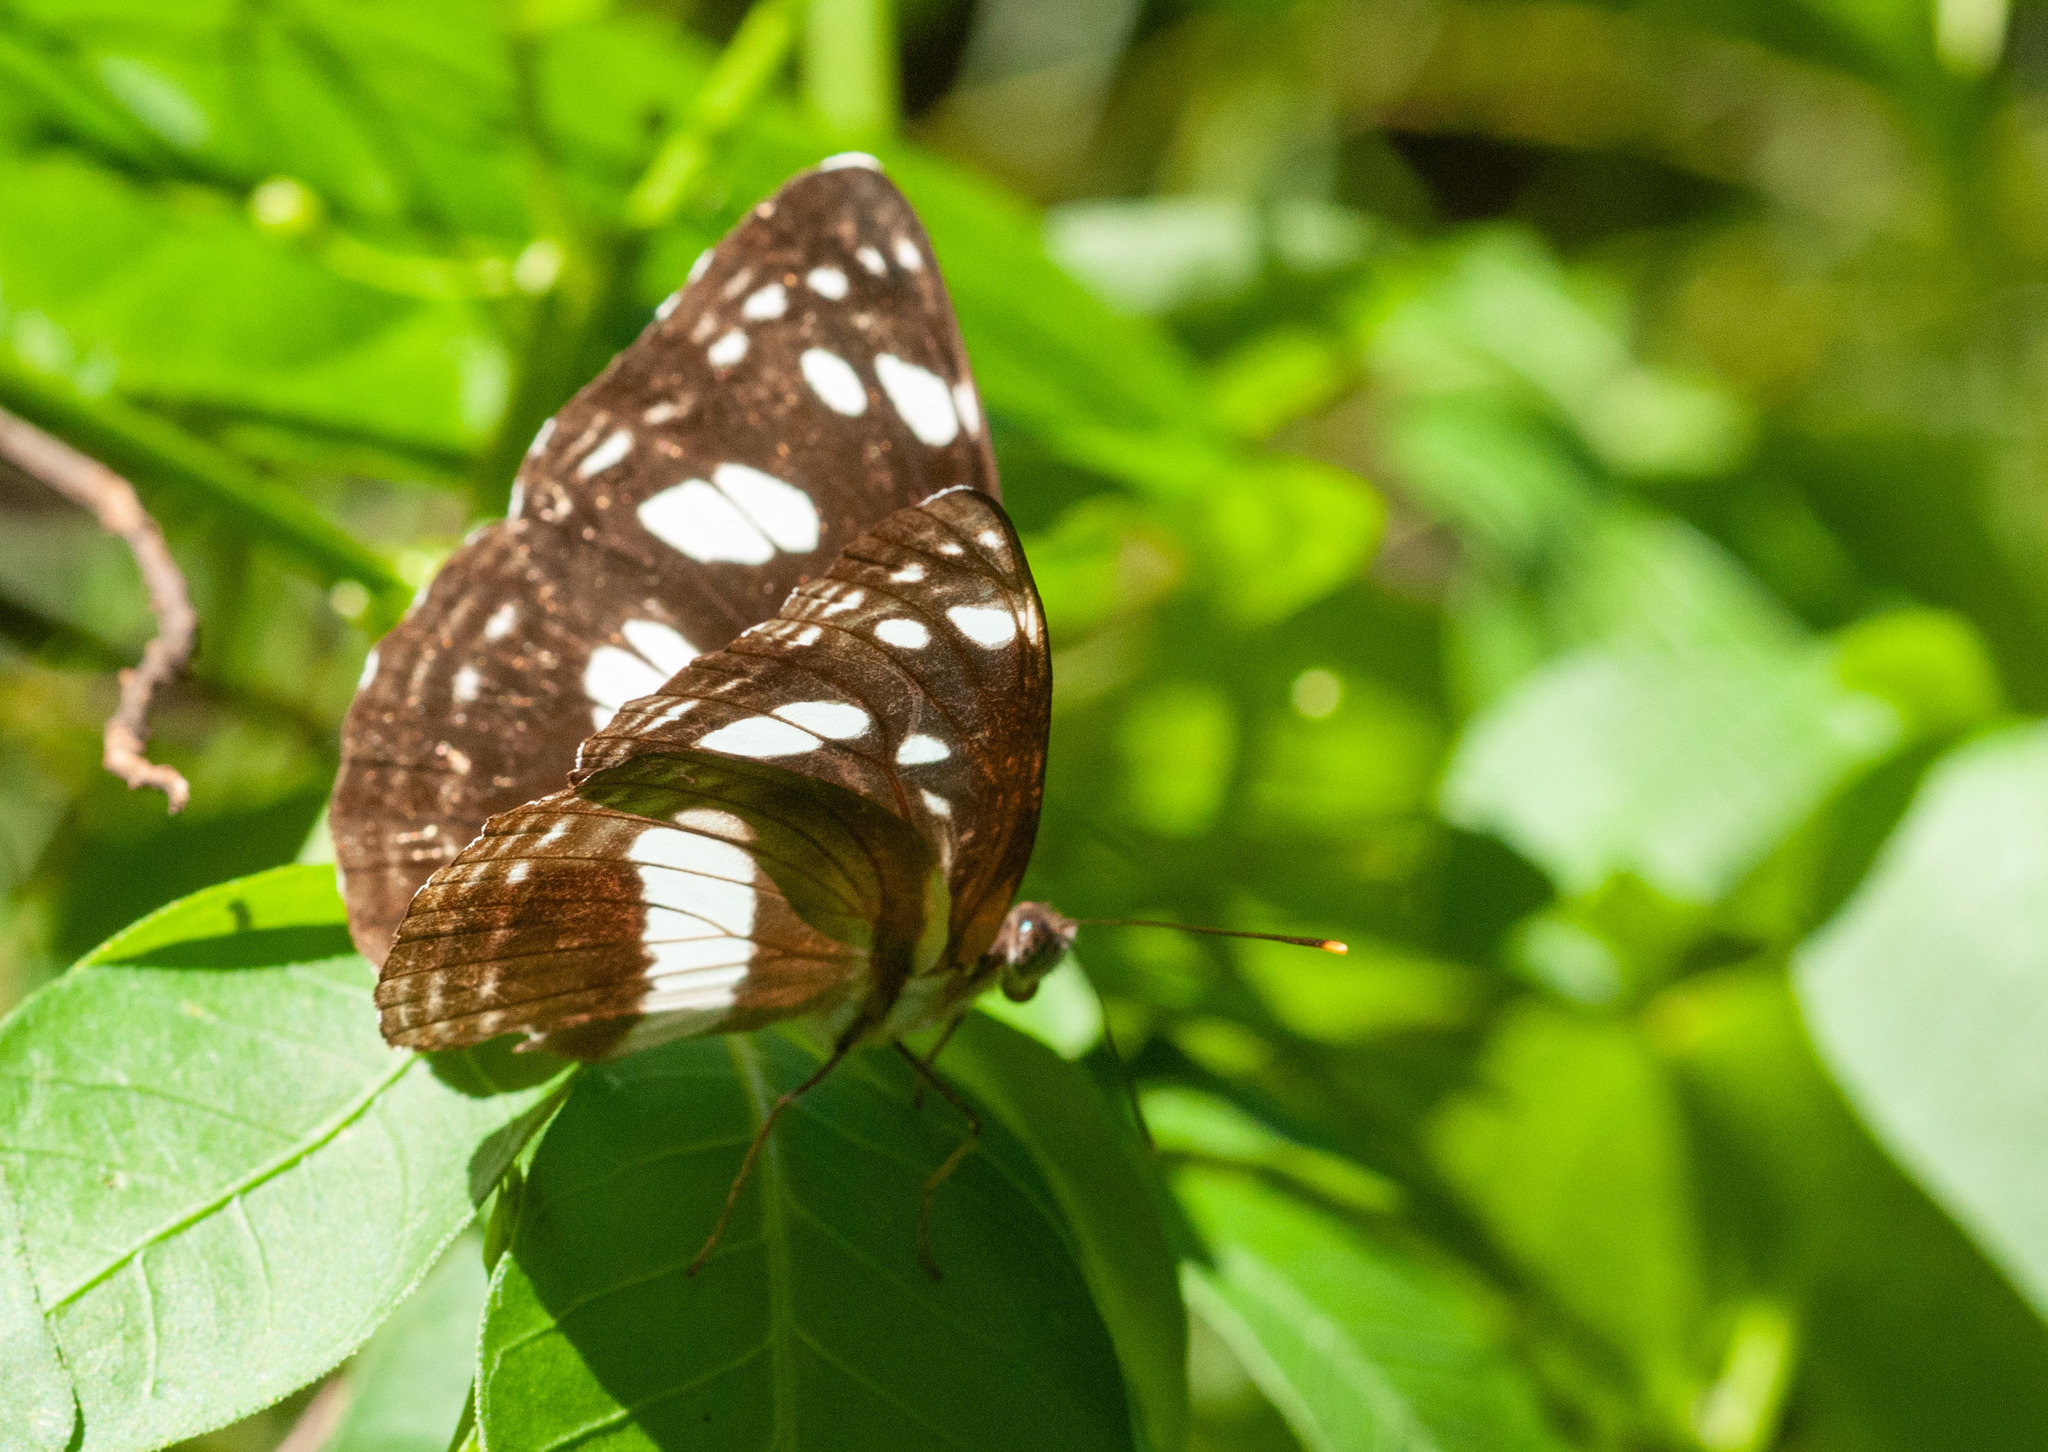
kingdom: Animalia
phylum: Arthropoda
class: Insecta
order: Lepidoptera
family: Nymphalidae
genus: Phaedyma
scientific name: Phaedyma shepherdi
